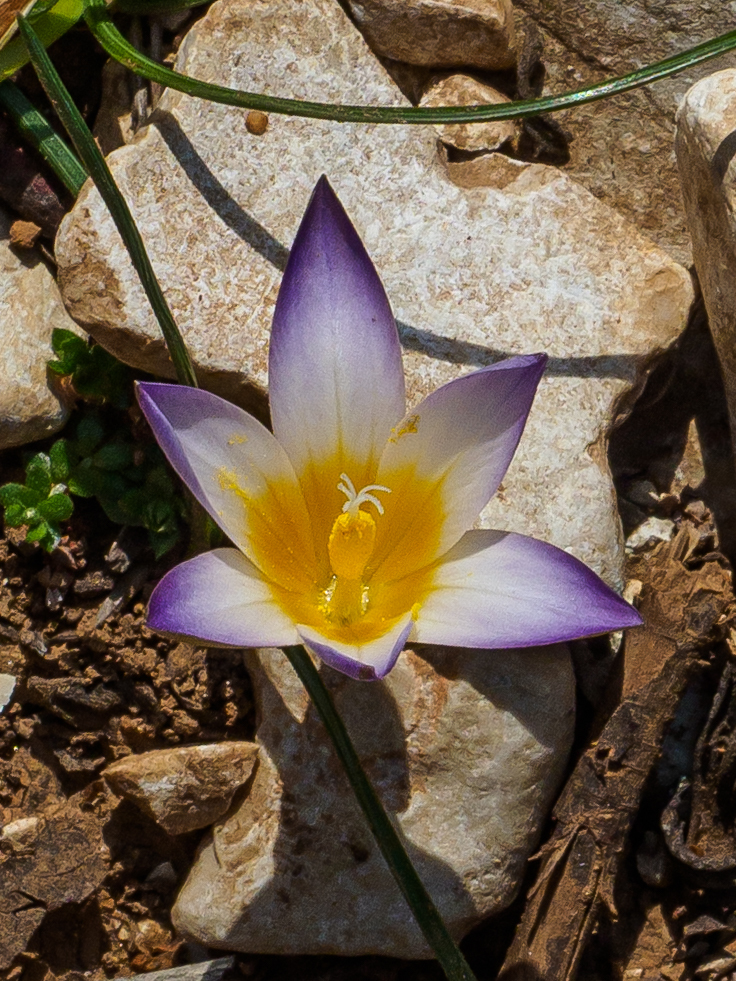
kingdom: Plantae
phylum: Tracheophyta
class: Liliopsida
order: Asparagales
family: Iridaceae
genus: Romulea
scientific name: Romulea bulbocodium
